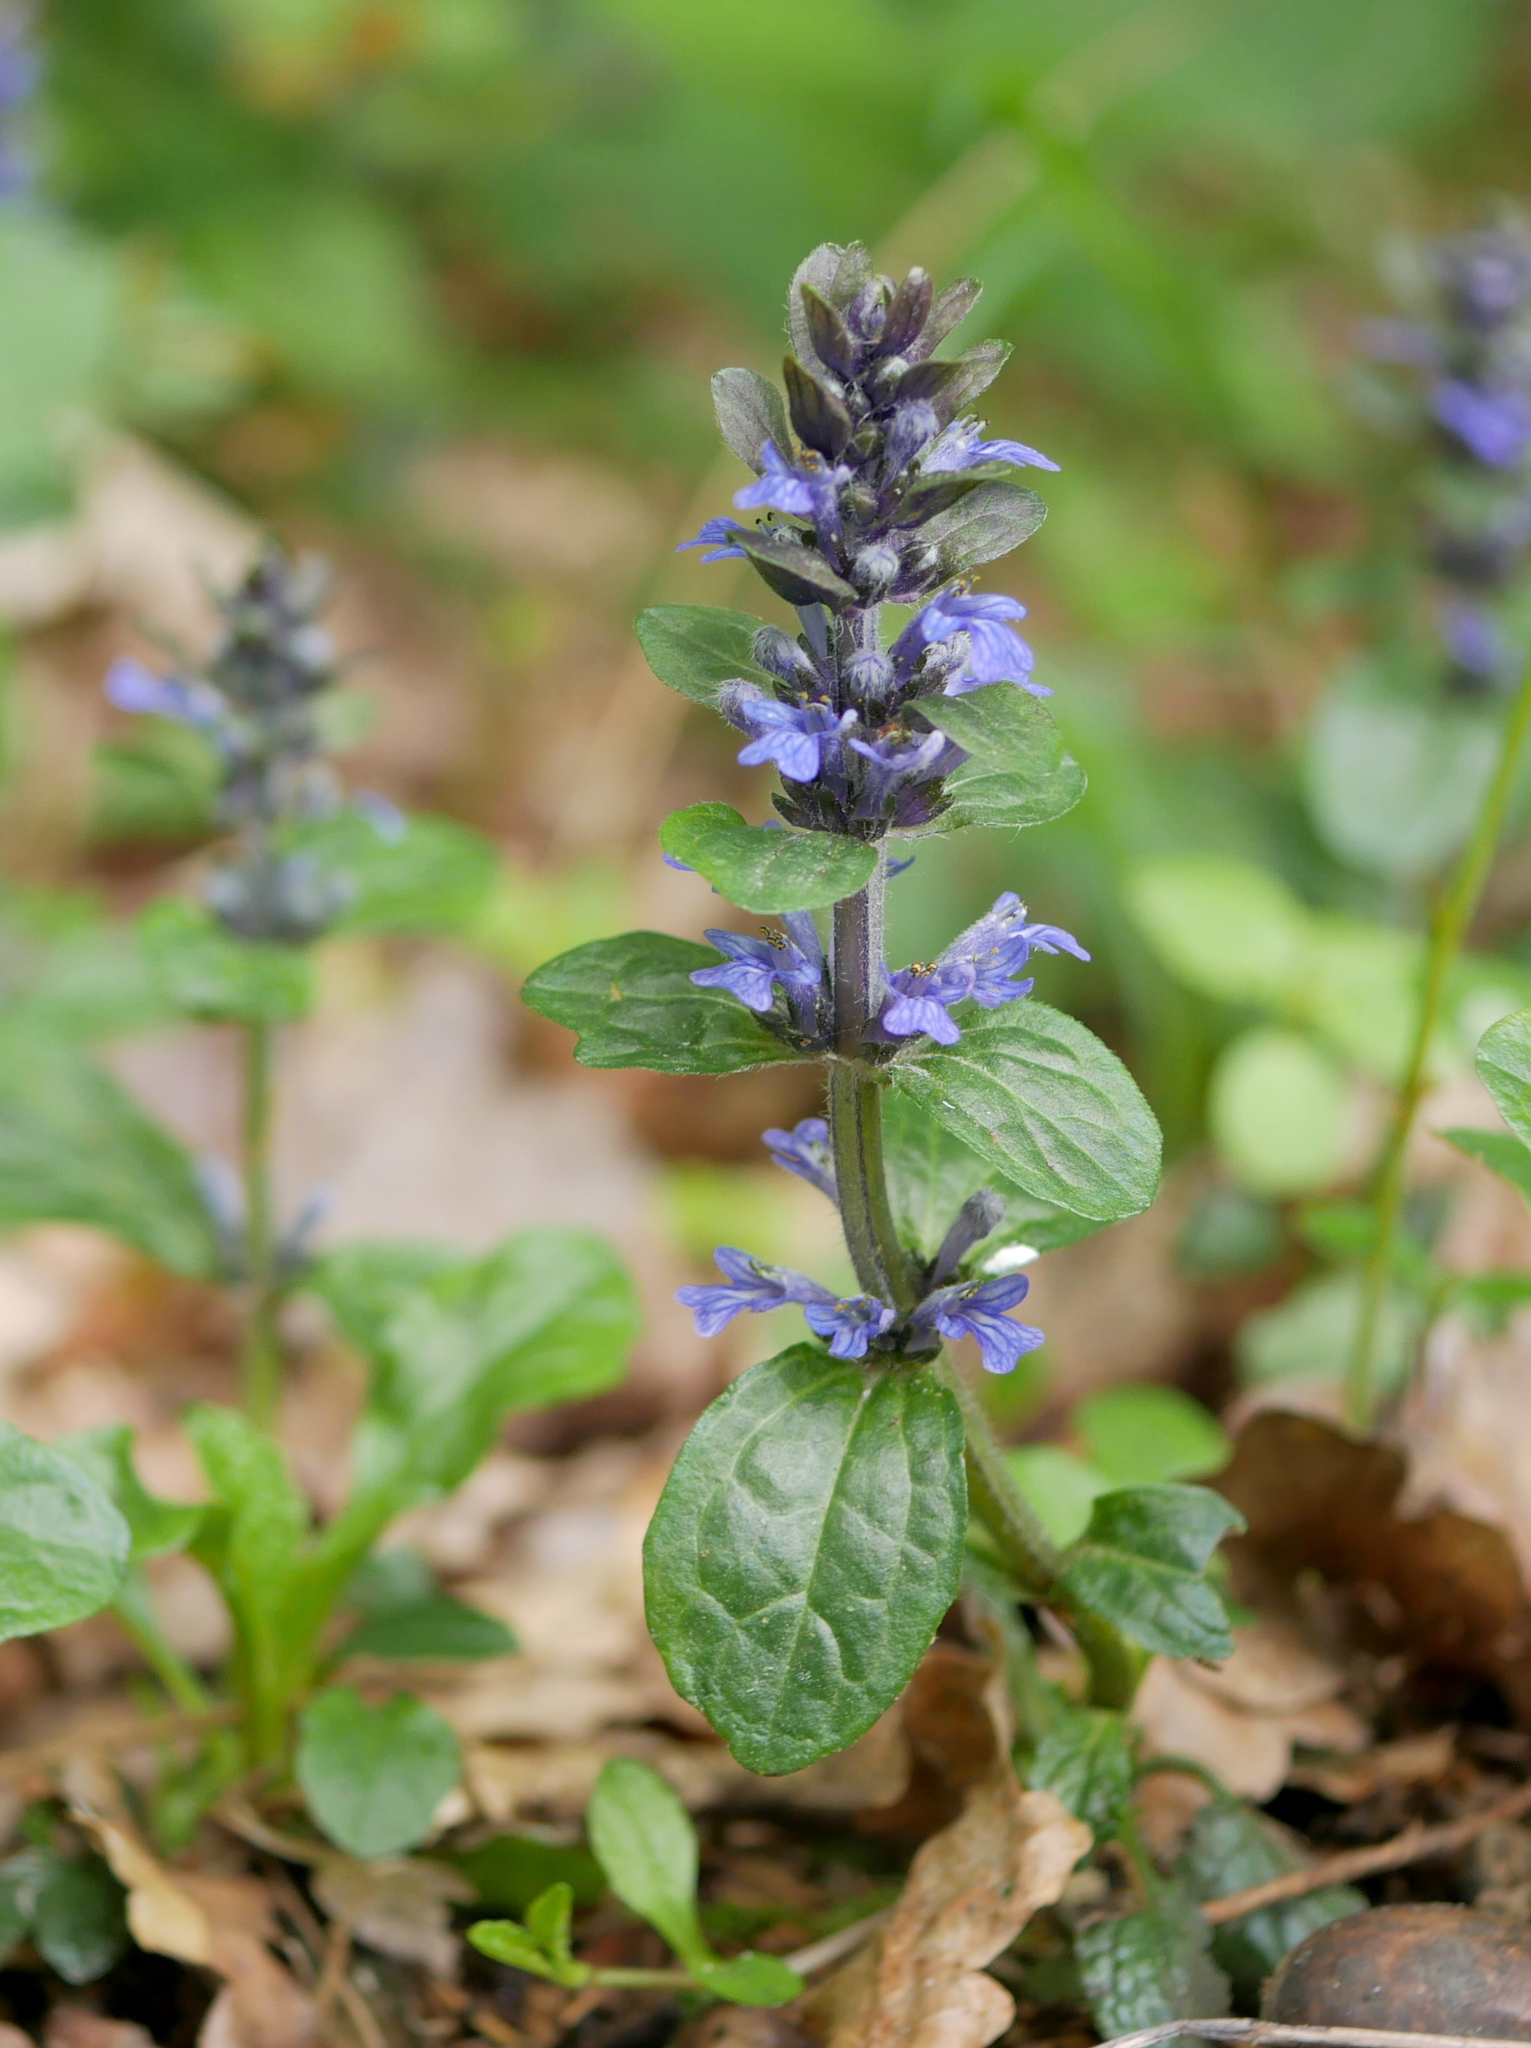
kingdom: Plantae
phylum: Tracheophyta
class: Magnoliopsida
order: Lamiales
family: Lamiaceae
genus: Ajuga
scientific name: Ajuga reptans
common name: Bugle
